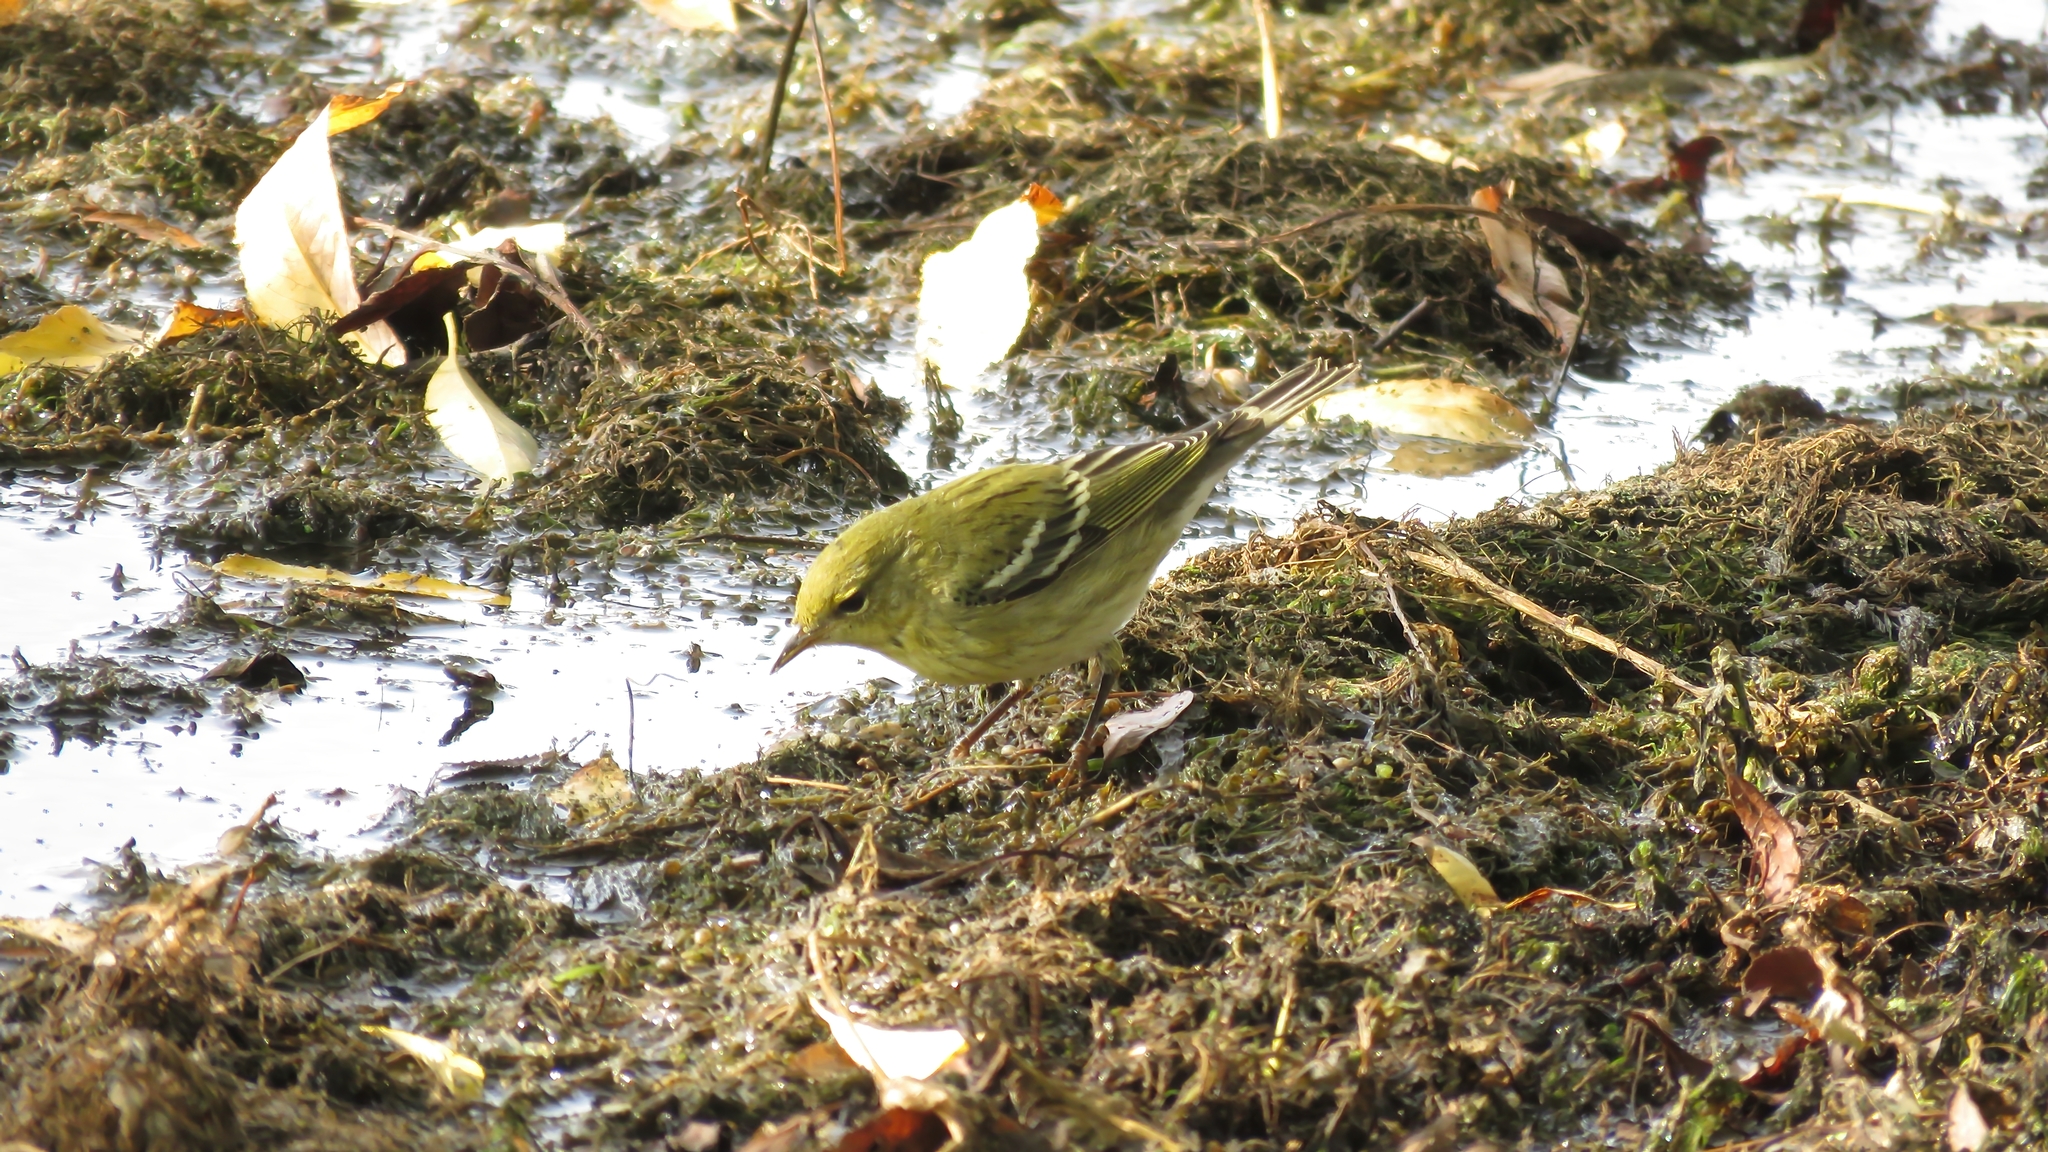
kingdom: Animalia
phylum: Chordata
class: Aves
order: Passeriformes
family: Parulidae
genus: Setophaga
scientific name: Setophaga striata
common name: Blackpoll warbler
